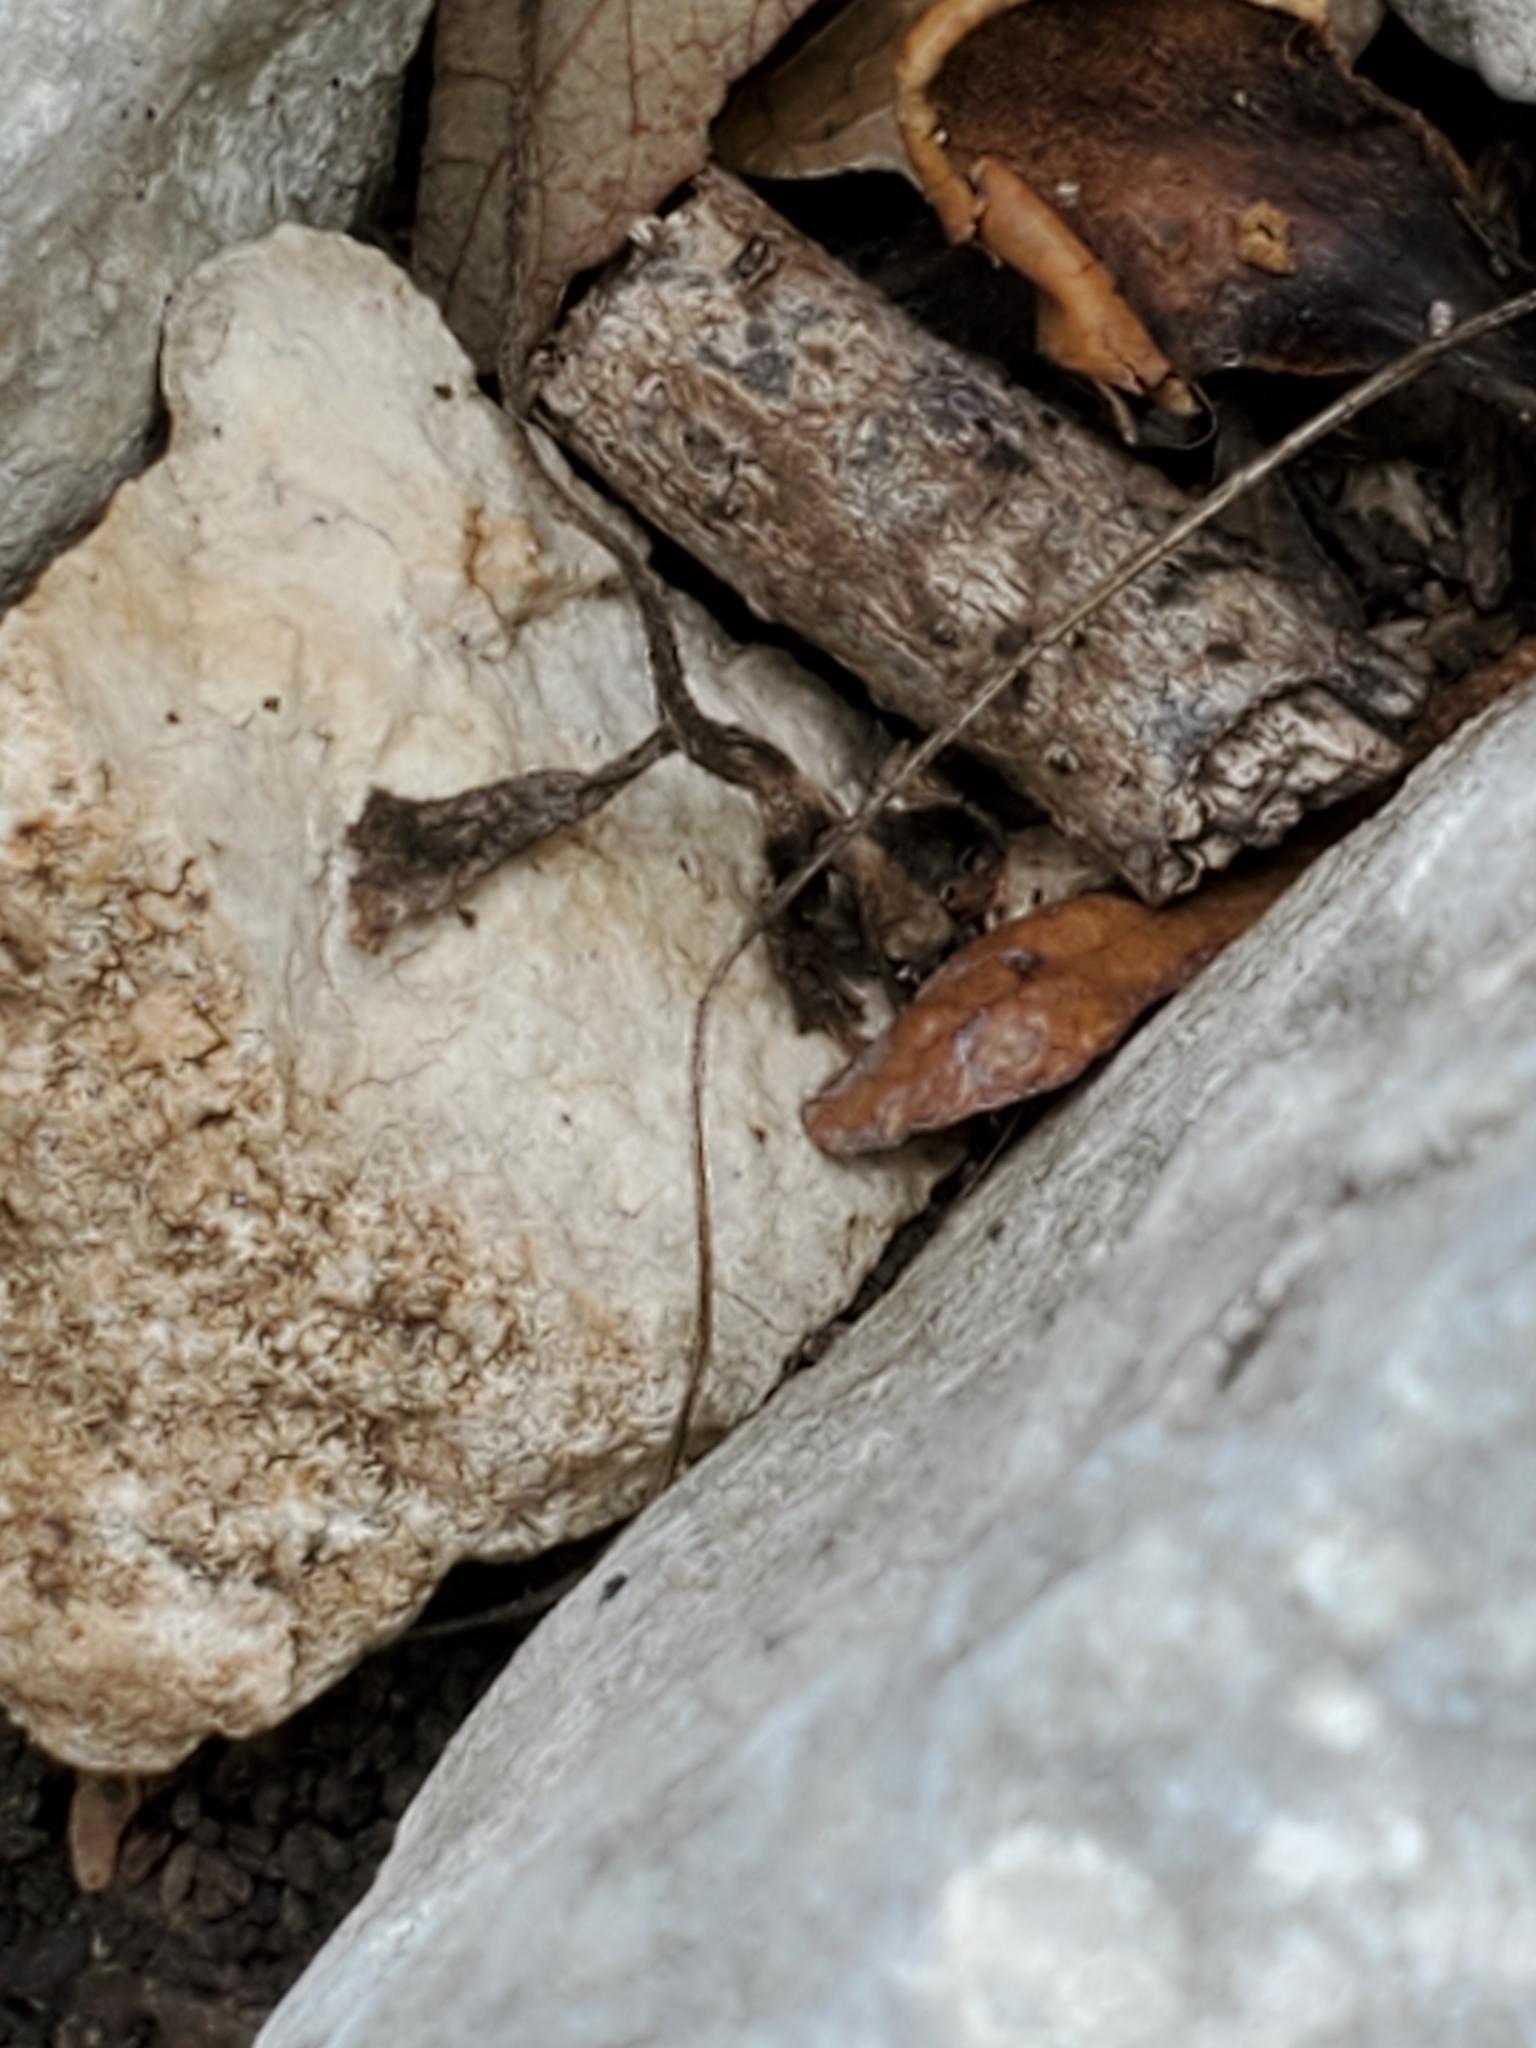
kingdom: Plantae
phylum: Tracheophyta
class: Magnoliopsida
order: Ranunculales
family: Ranunculaceae
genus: Anemone
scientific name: Anemone edwardsiana
